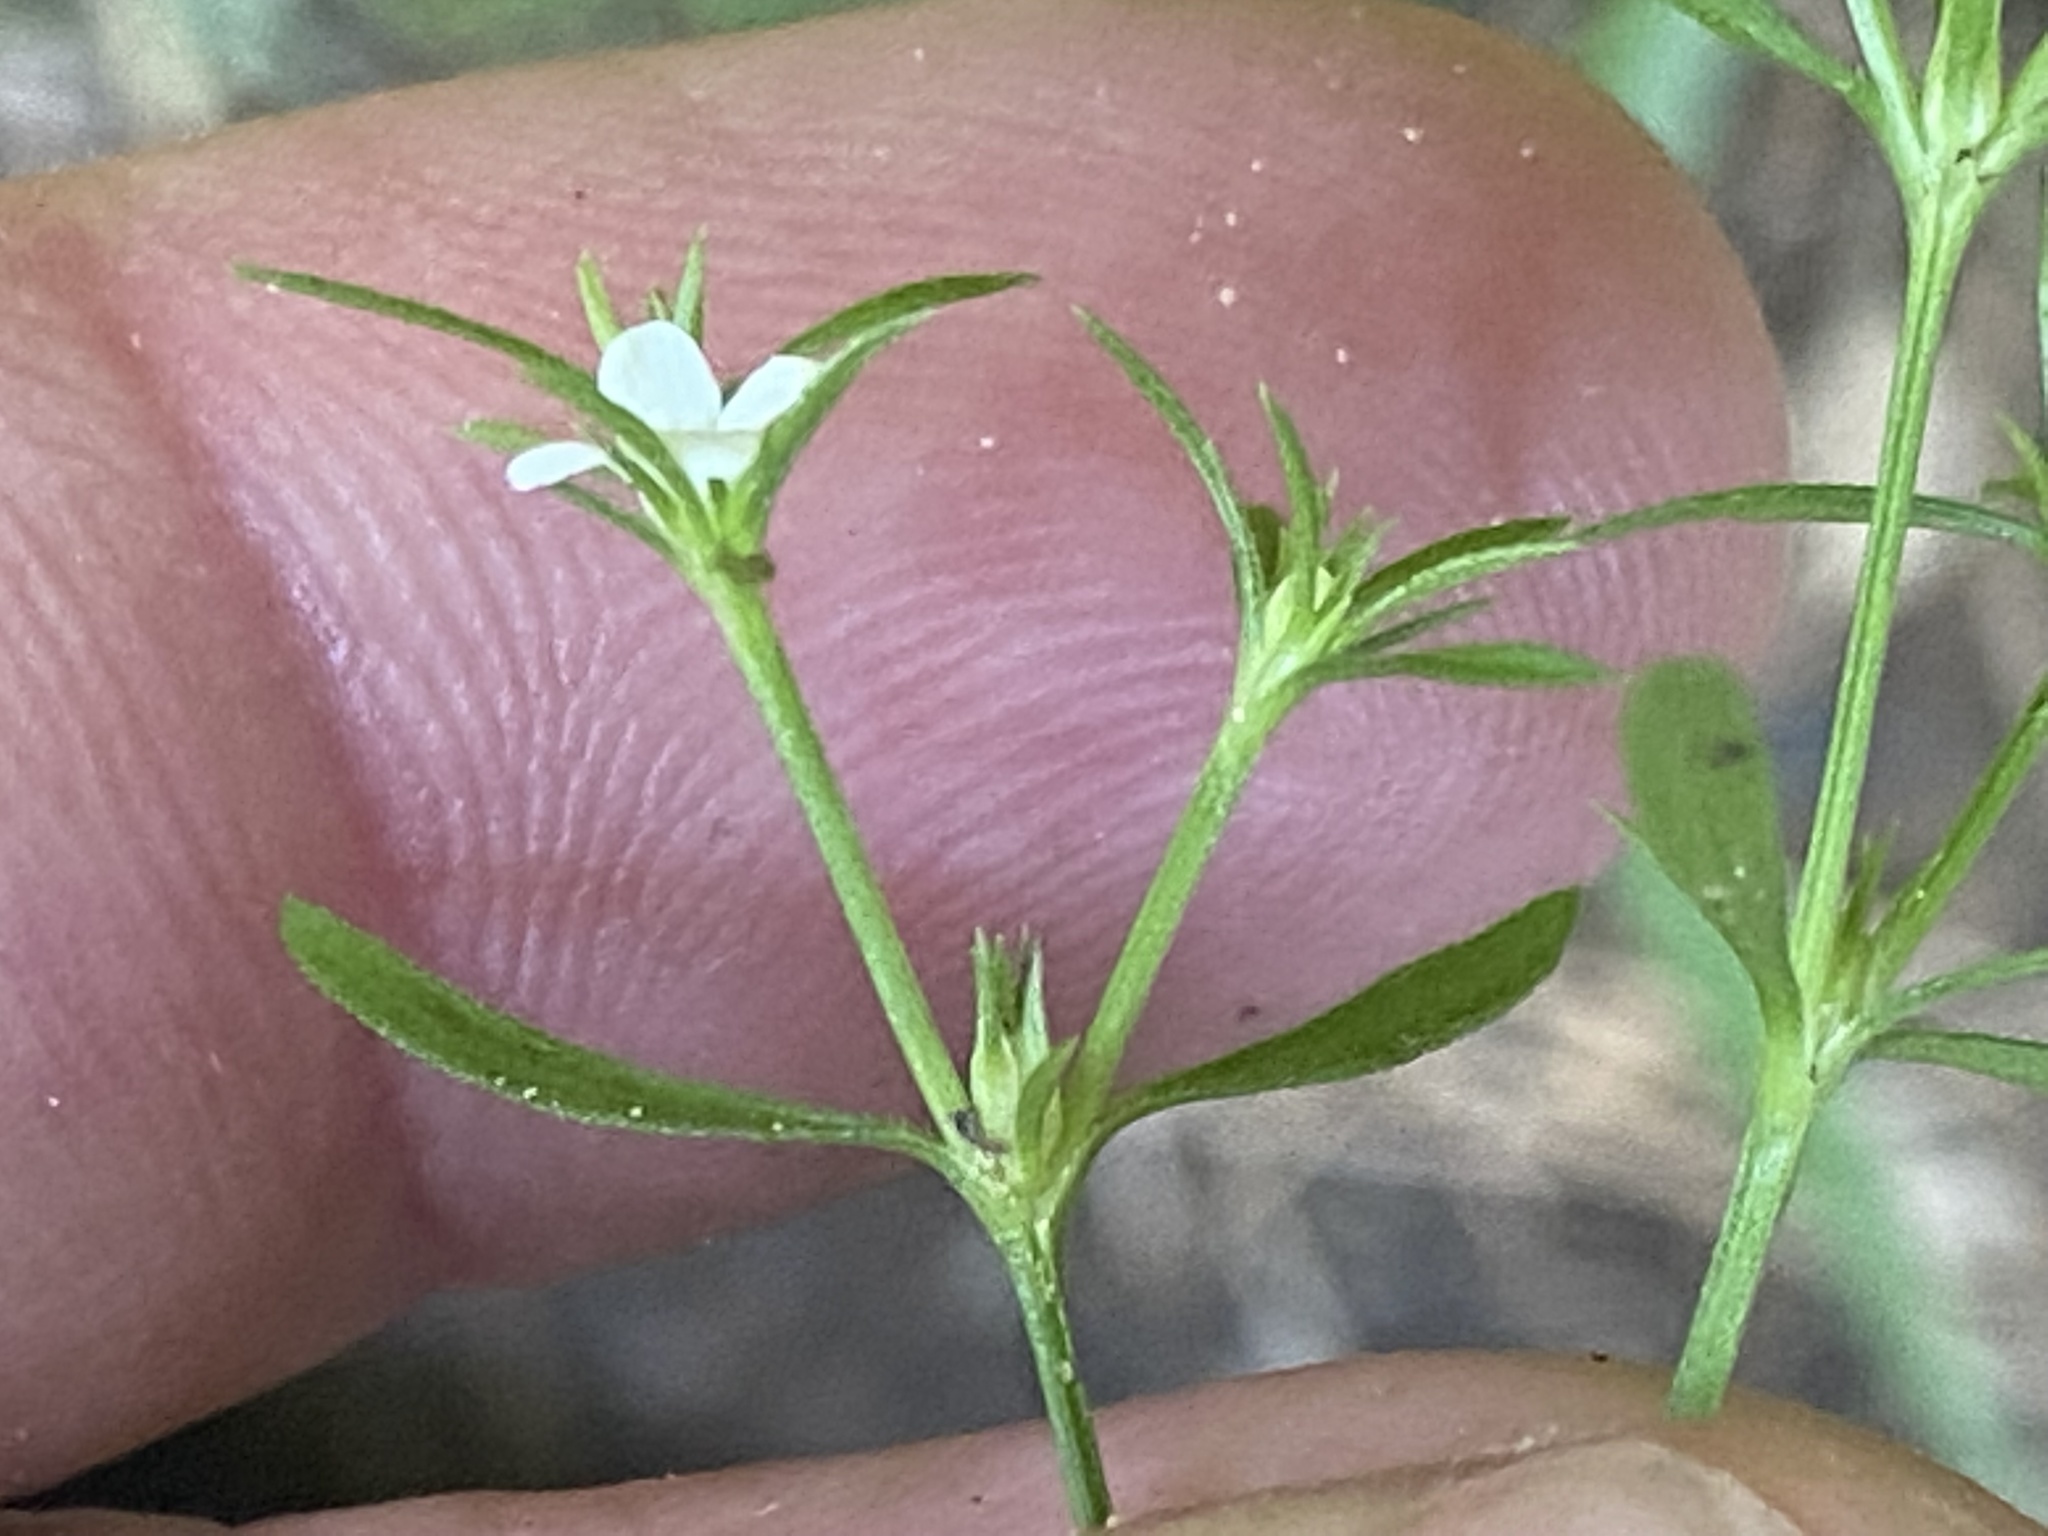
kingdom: Plantae
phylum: Tracheophyta
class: Magnoliopsida
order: Lamiales
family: Tetrachondraceae
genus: Polypremum
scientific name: Polypremum procumbens
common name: Juniper-leaf
